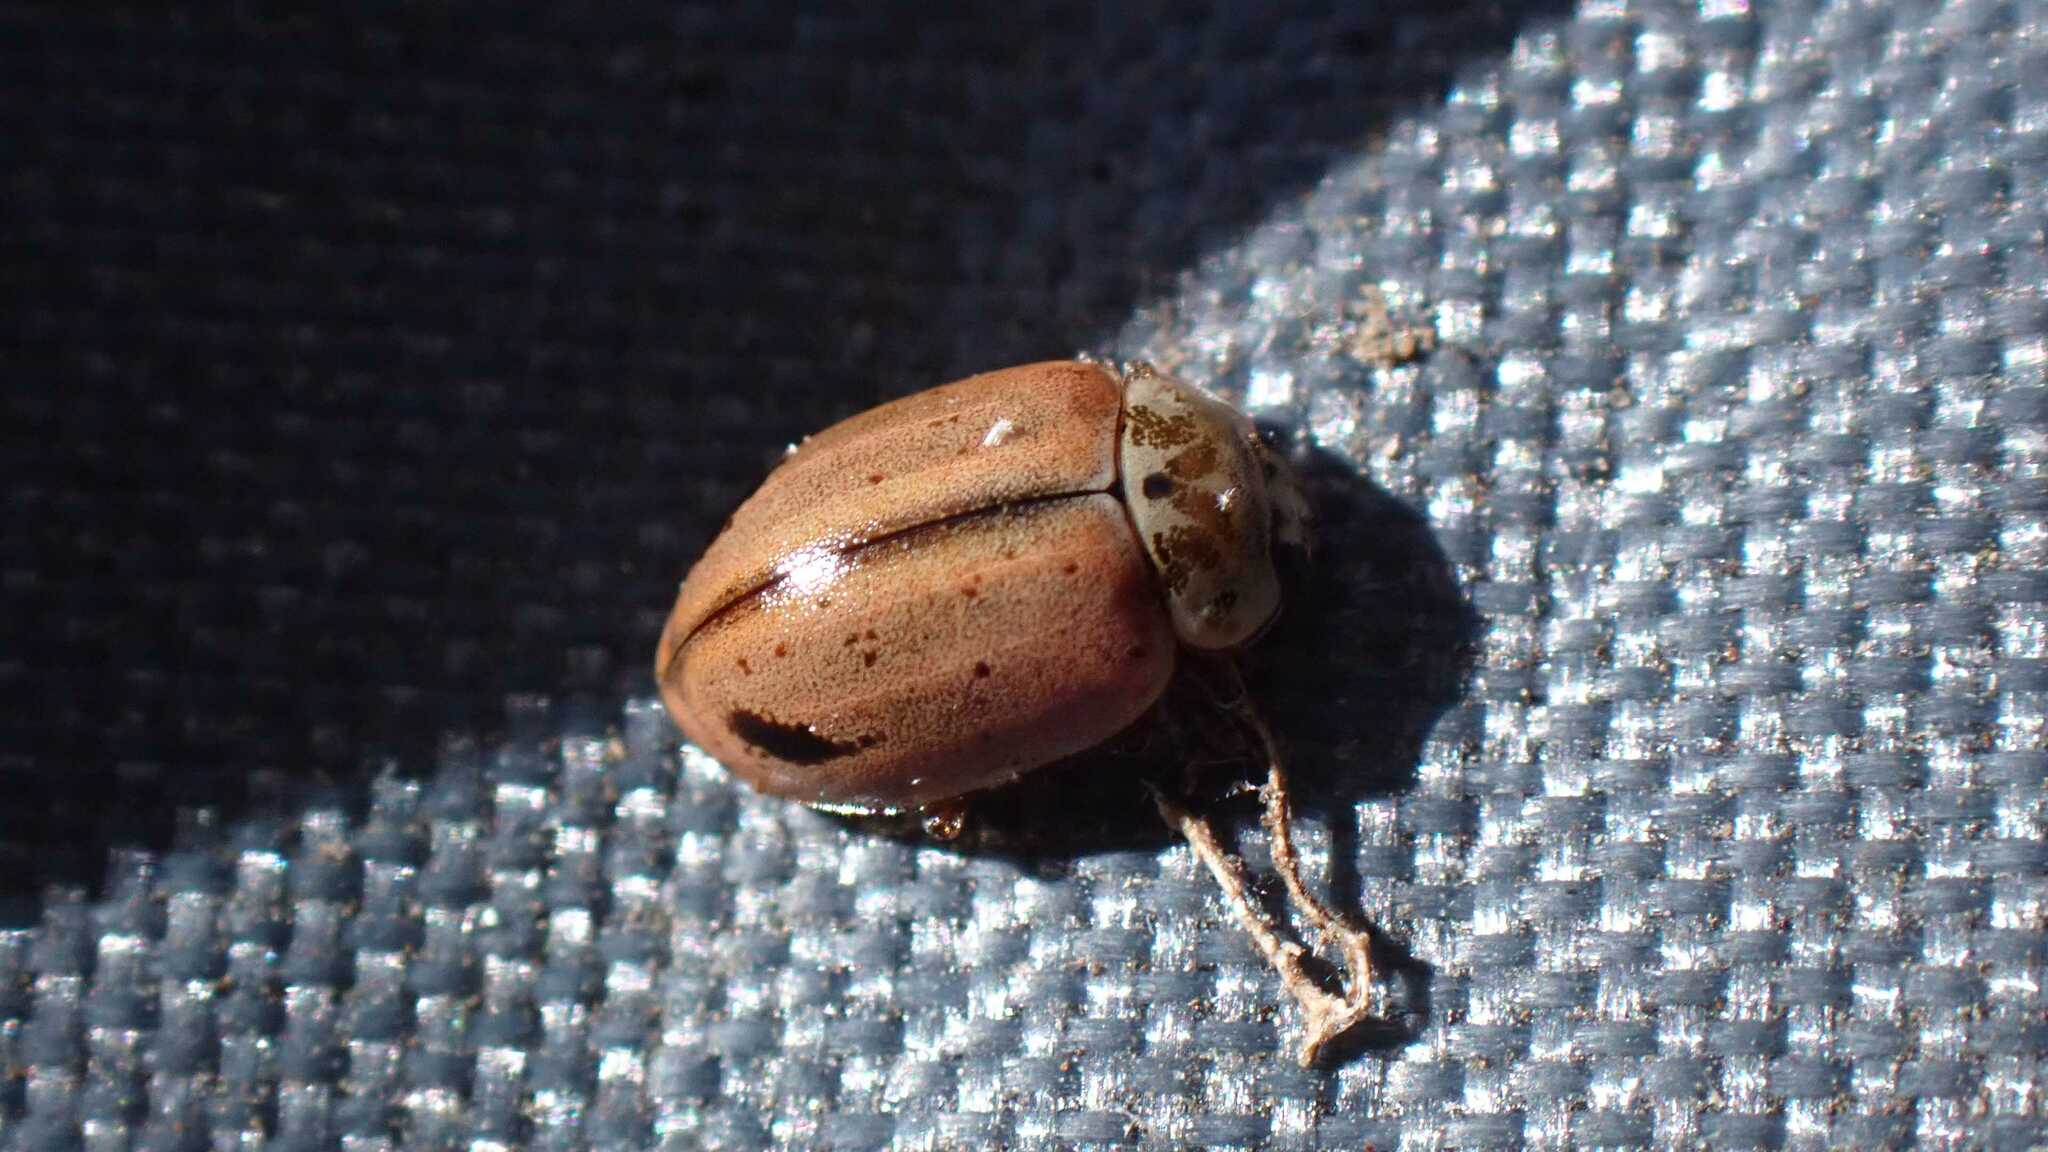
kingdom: Animalia
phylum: Arthropoda
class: Insecta
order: Coleoptera
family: Coccinellidae
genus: Aphidecta
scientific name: Aphidecta obliterata
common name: Larch ladybird
